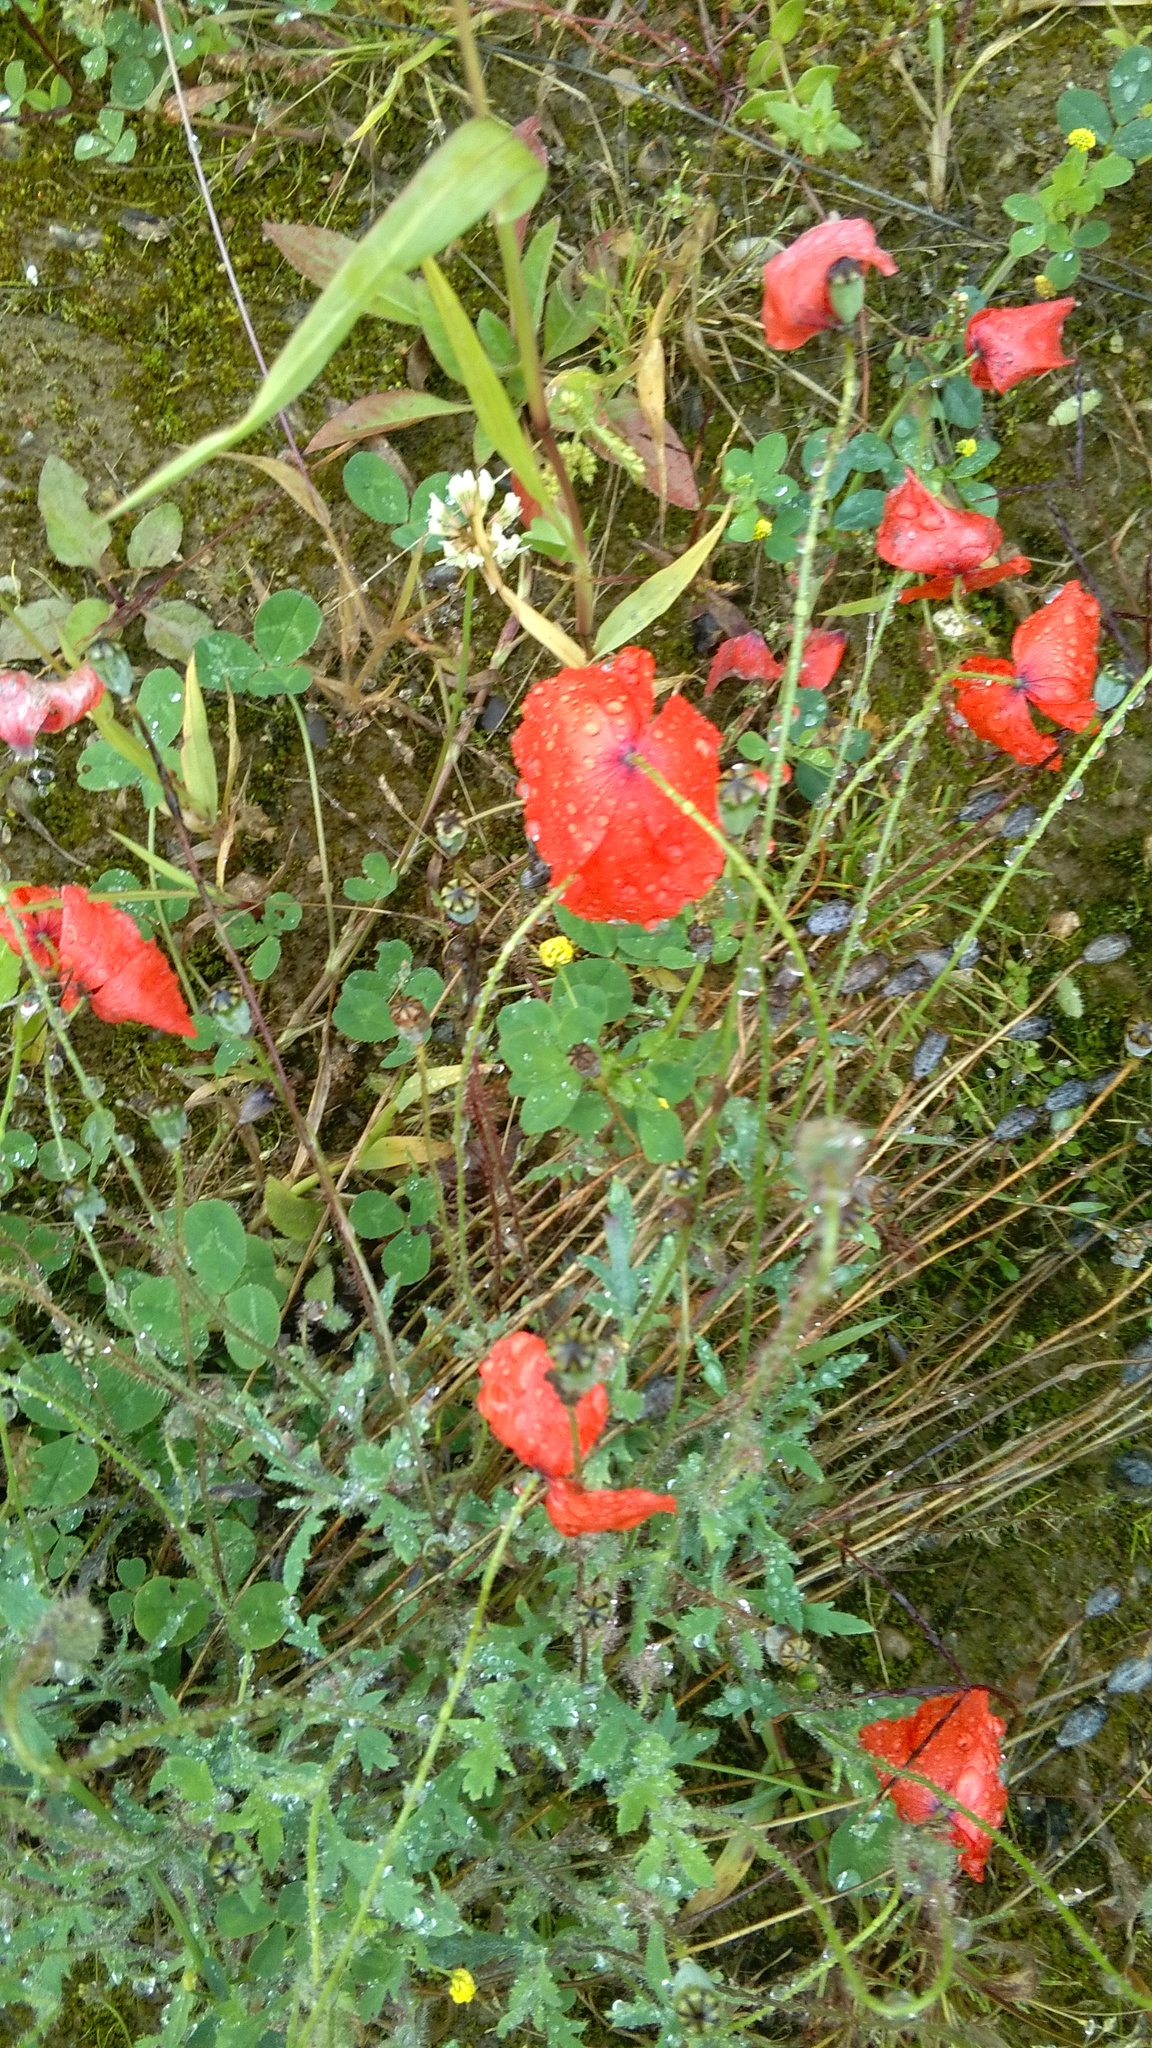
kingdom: Plantae
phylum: Tracheophyta
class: Magnoliopsida
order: Ranunculales
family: Papaveraceae
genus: Papaver
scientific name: Papaver rhoeas
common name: Corn poppy
